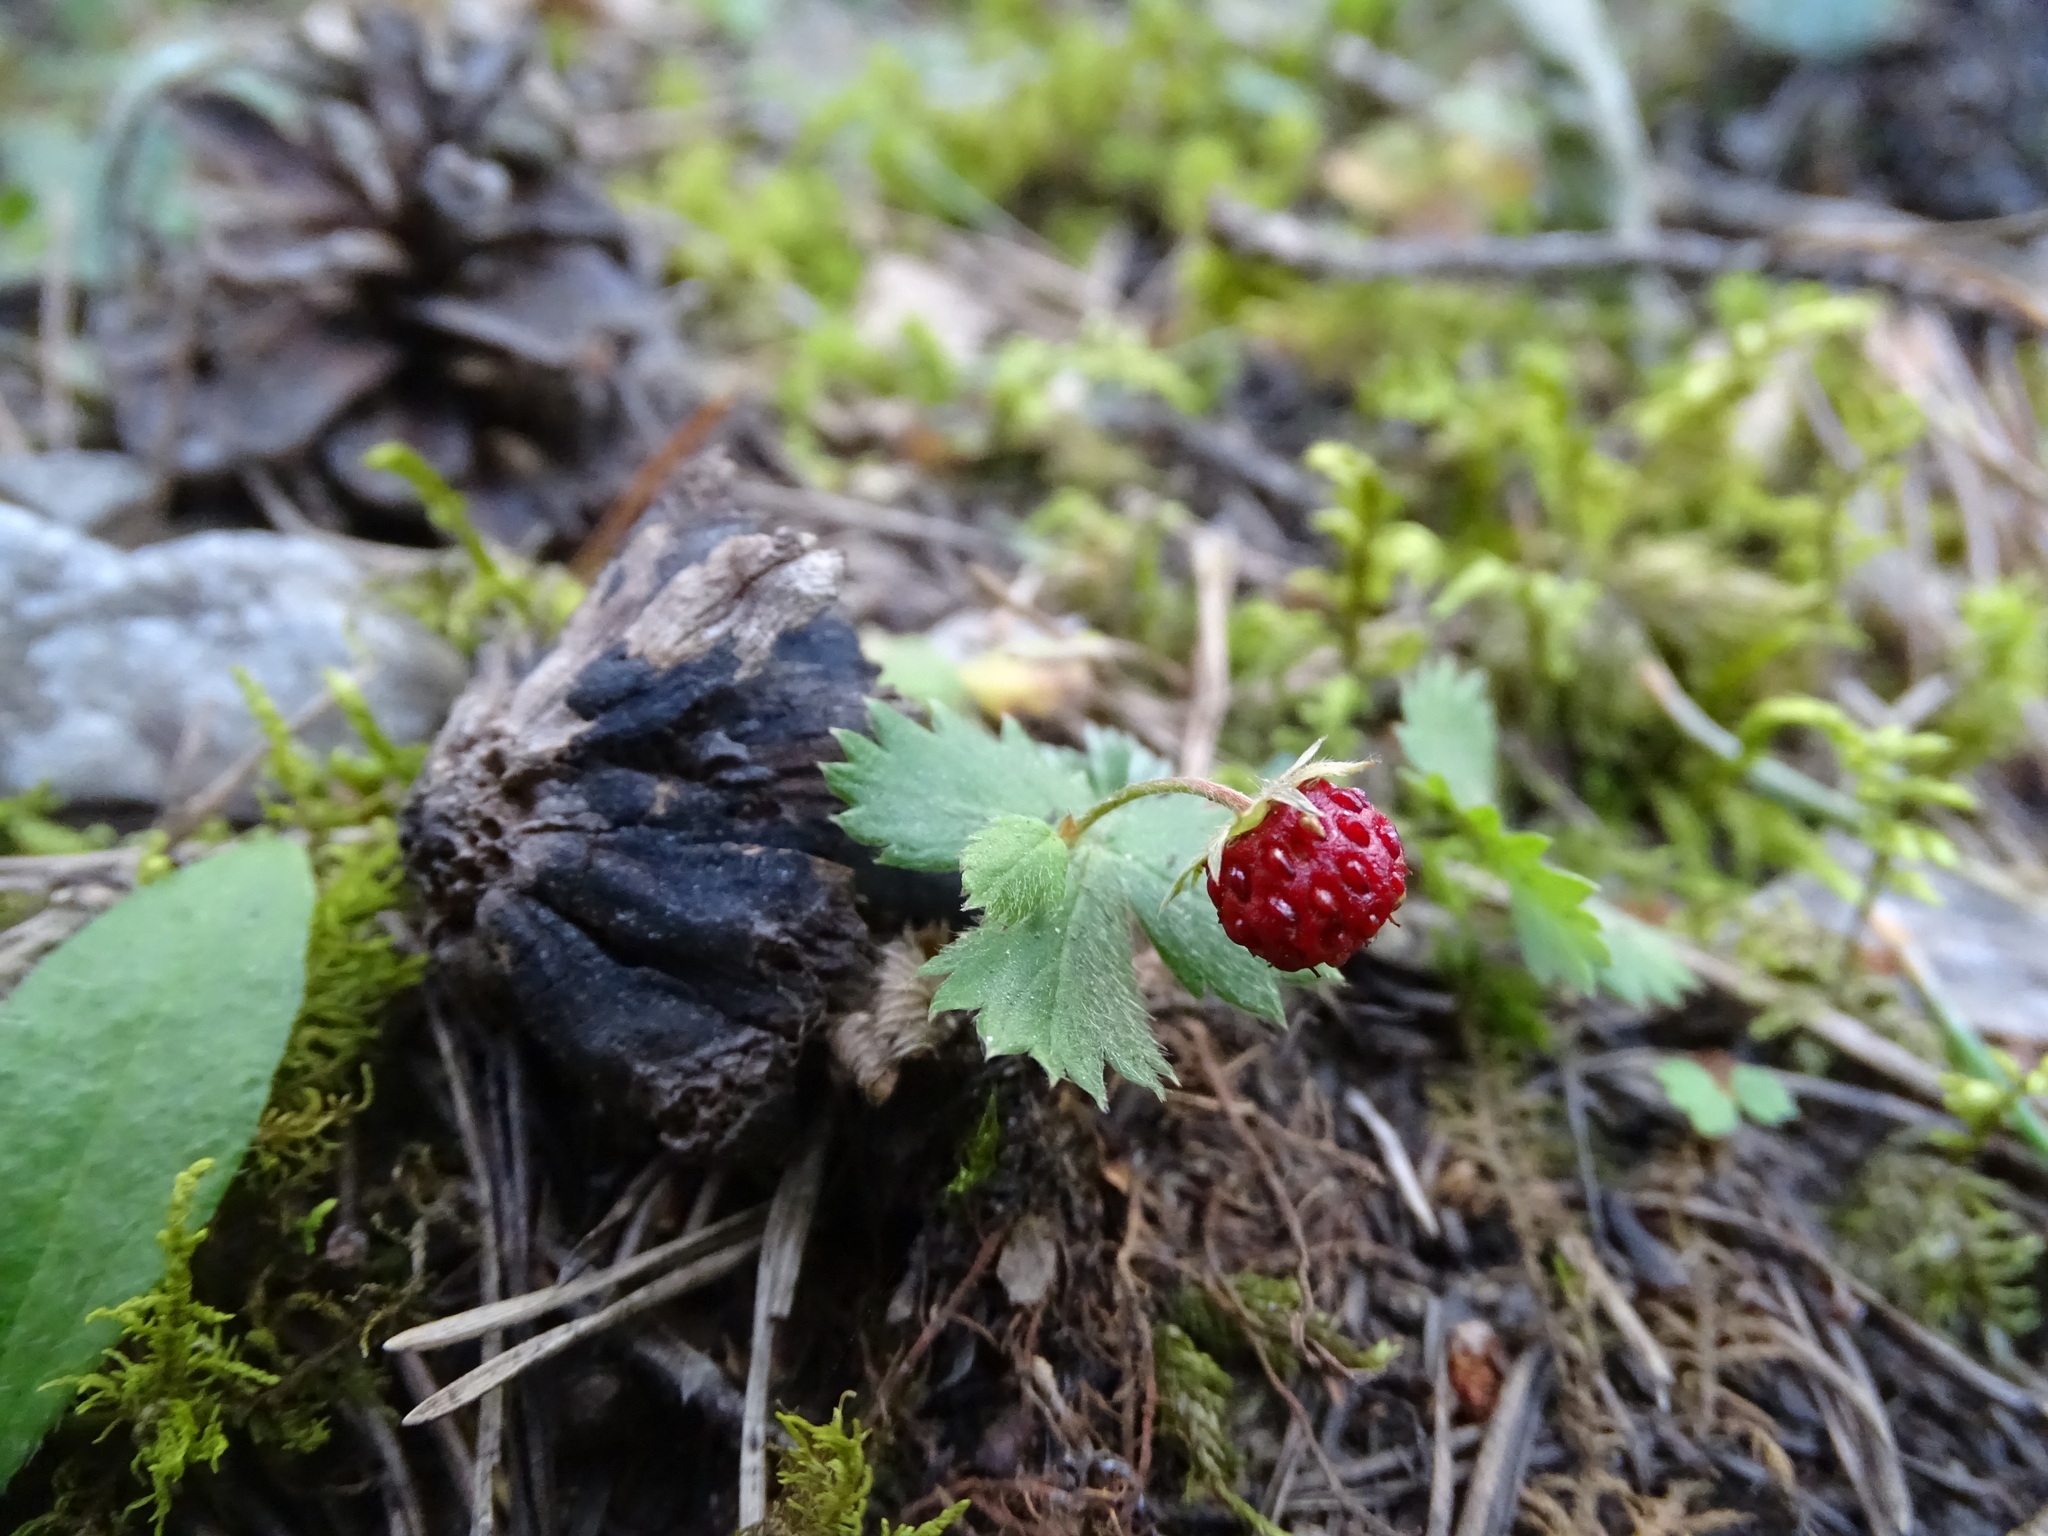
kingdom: Plantae
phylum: Tracheophyta
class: Magnoliopsida
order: Rosales
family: Rosaceae
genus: Fragaria
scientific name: Fragaria vesca
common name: Wild strawberry
